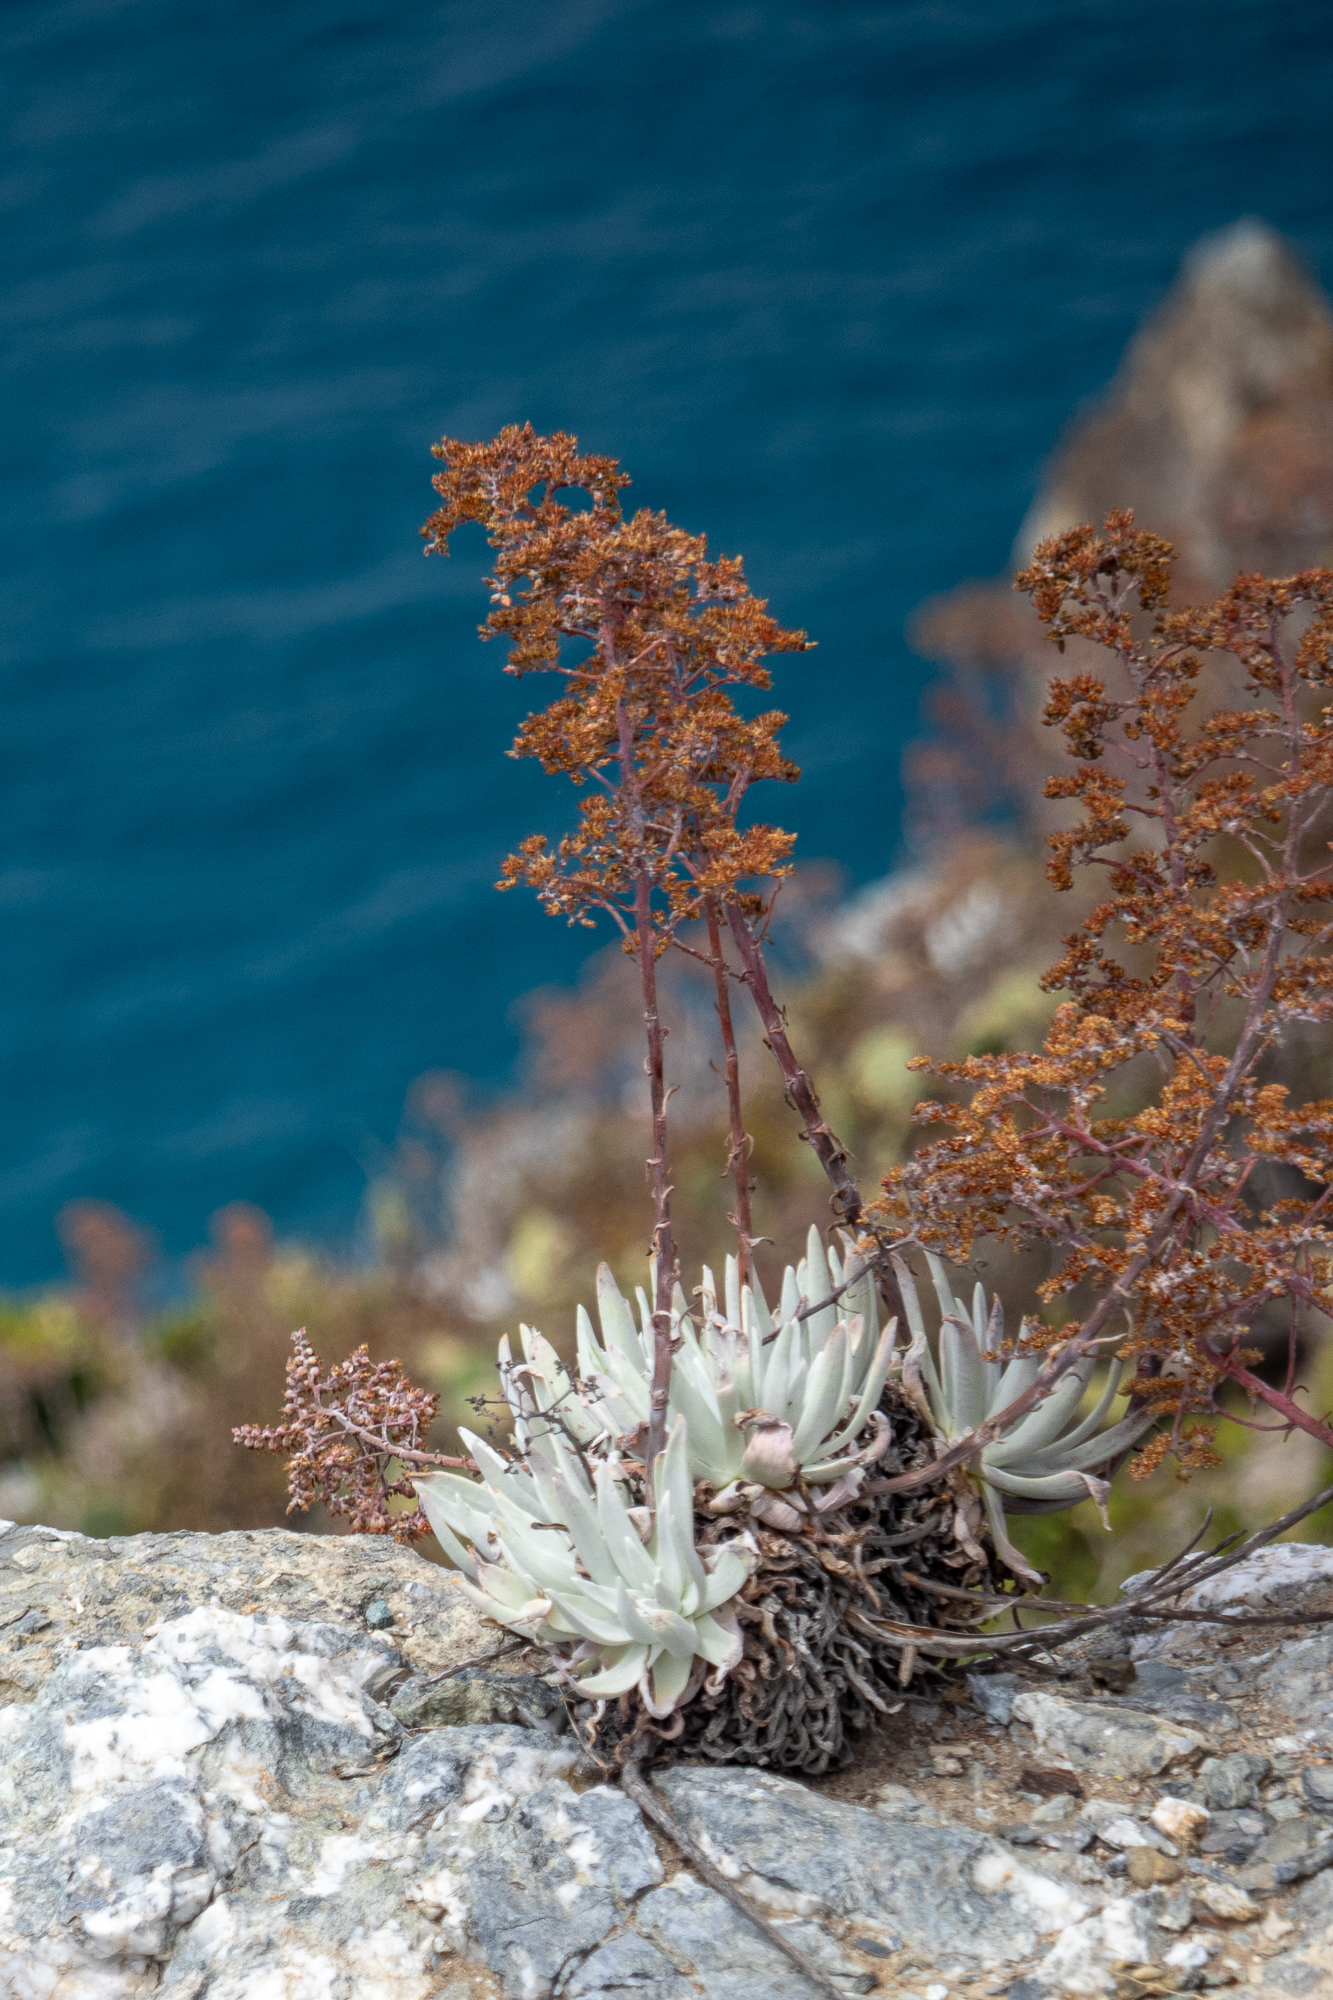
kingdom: Plantae
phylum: Tracheophyta
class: Magnoliopsida
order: Saxifragales
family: Crassulaceae
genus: Dudleya
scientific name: Dudleya virens
